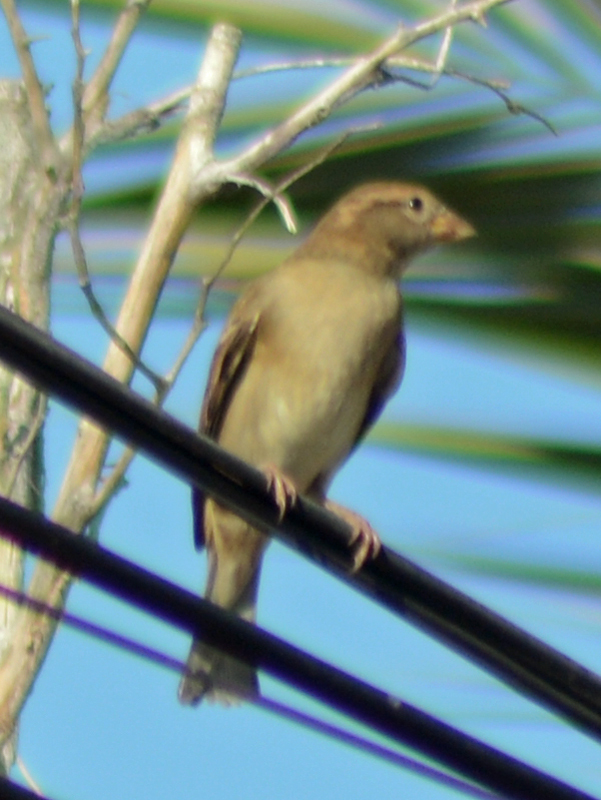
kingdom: Animalia
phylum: Chordata
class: Aves
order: Passeriformes
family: Passeridae
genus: Passer
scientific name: Passer domesticus
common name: House sparrow
